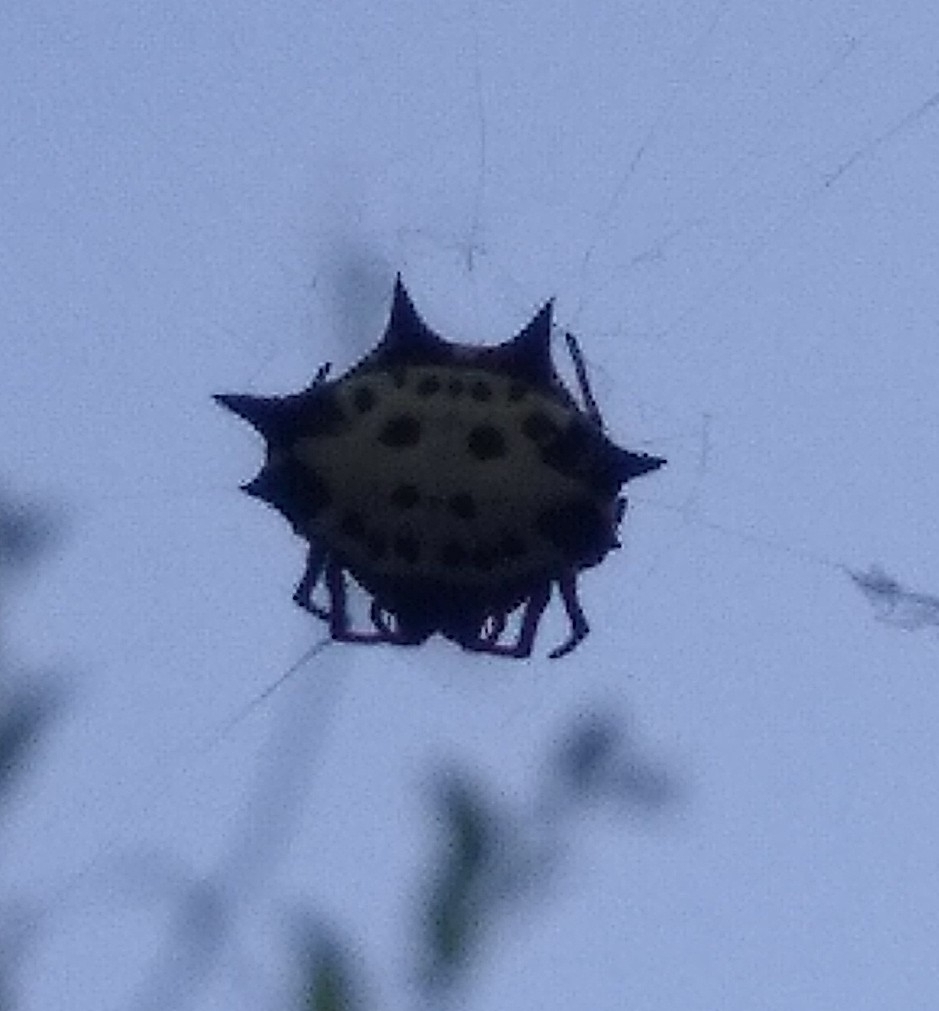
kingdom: Animalia
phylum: Arthropoda
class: Arachnida
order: Araneae
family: Araneidae
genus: Gasteracantha
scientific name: Gasteracantha cancriformis
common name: Orb weavers
